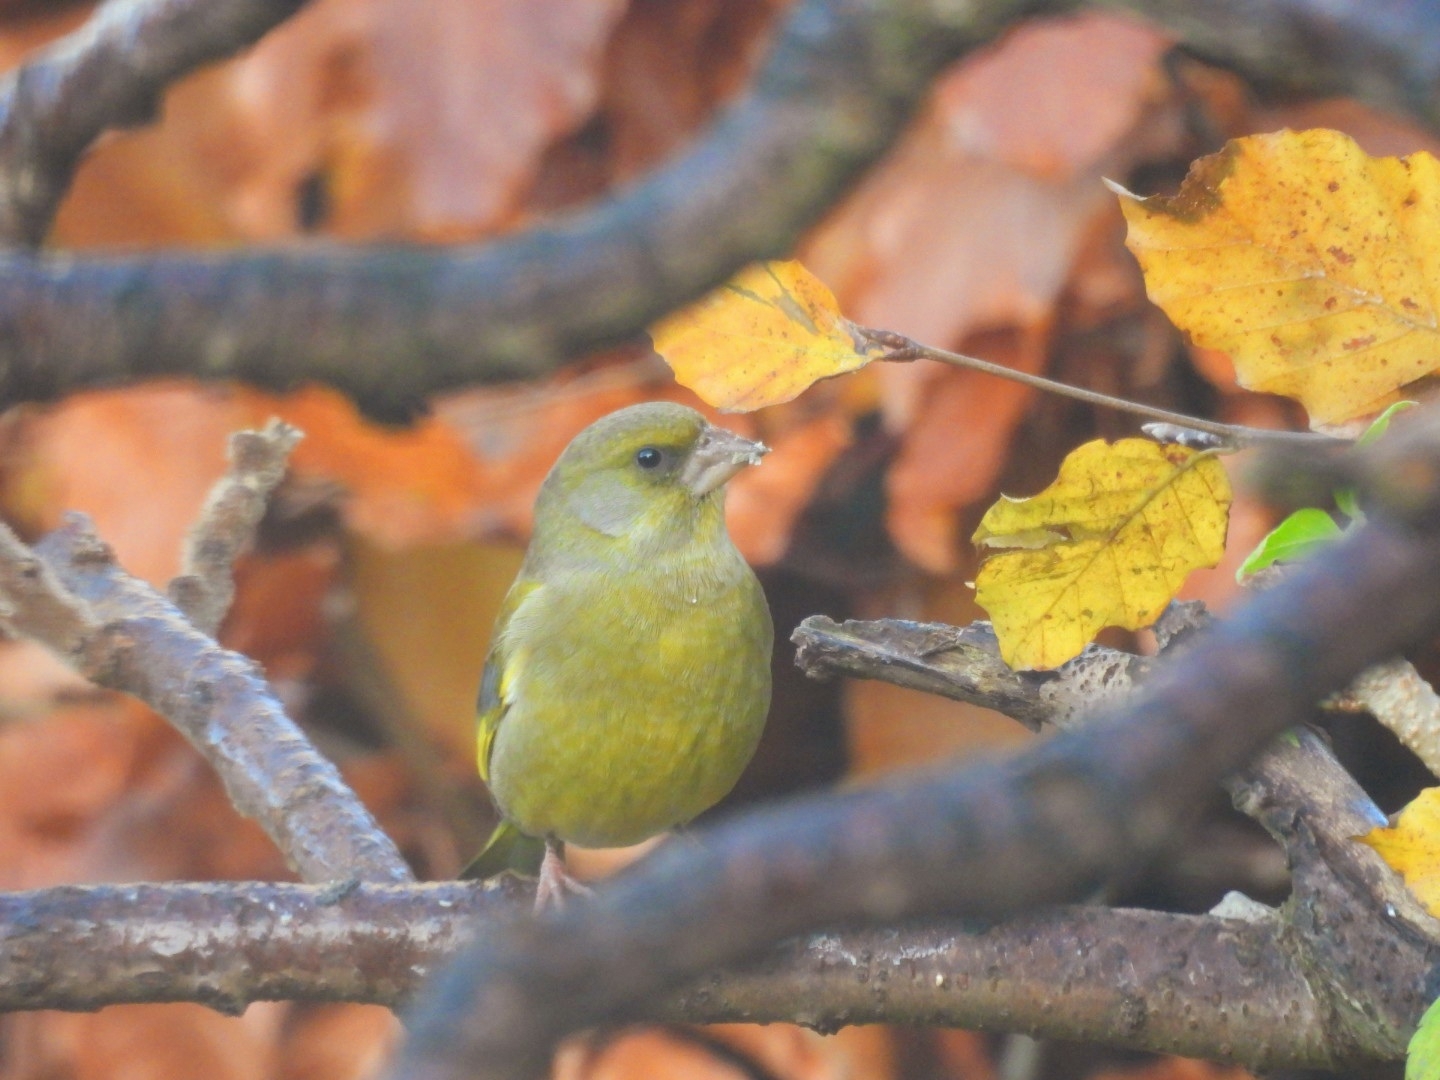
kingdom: Plantae
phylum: Tracheophyta
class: Liliopsida
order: Poales
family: Poaceae
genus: Chloris
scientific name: Chloris chloris
